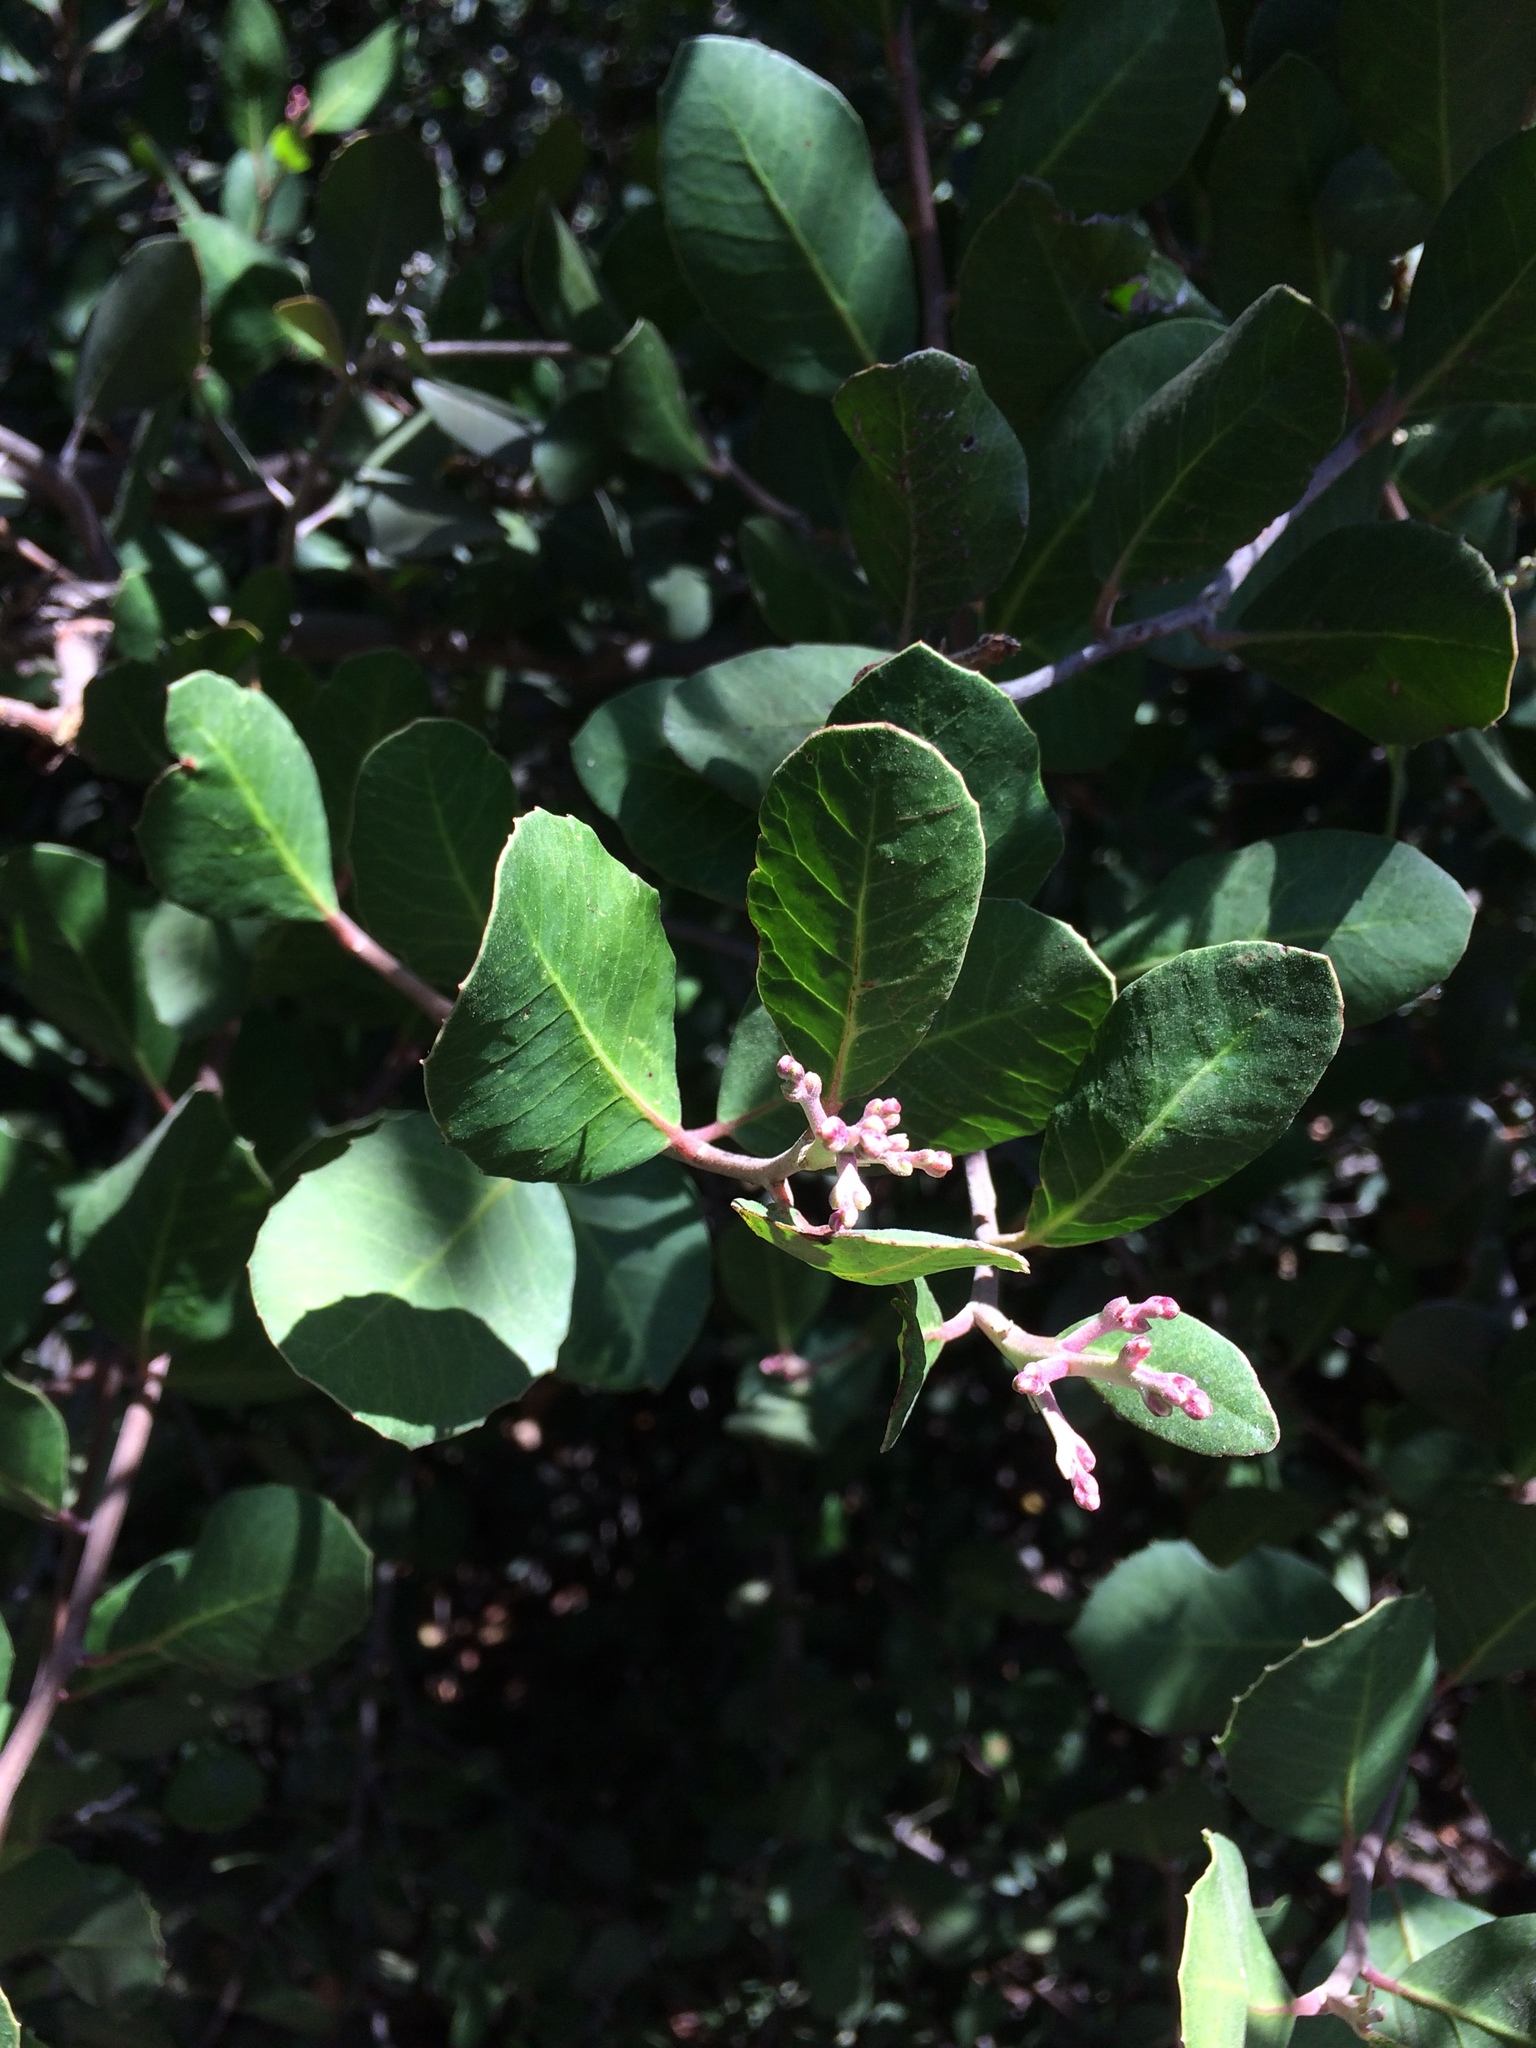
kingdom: Plantae
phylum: Tracheophyta
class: Magnoliopsida
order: Sapindales
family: Anacardiaceae
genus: Rhus
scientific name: Rhus integrifolia
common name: Lemonade sumac
